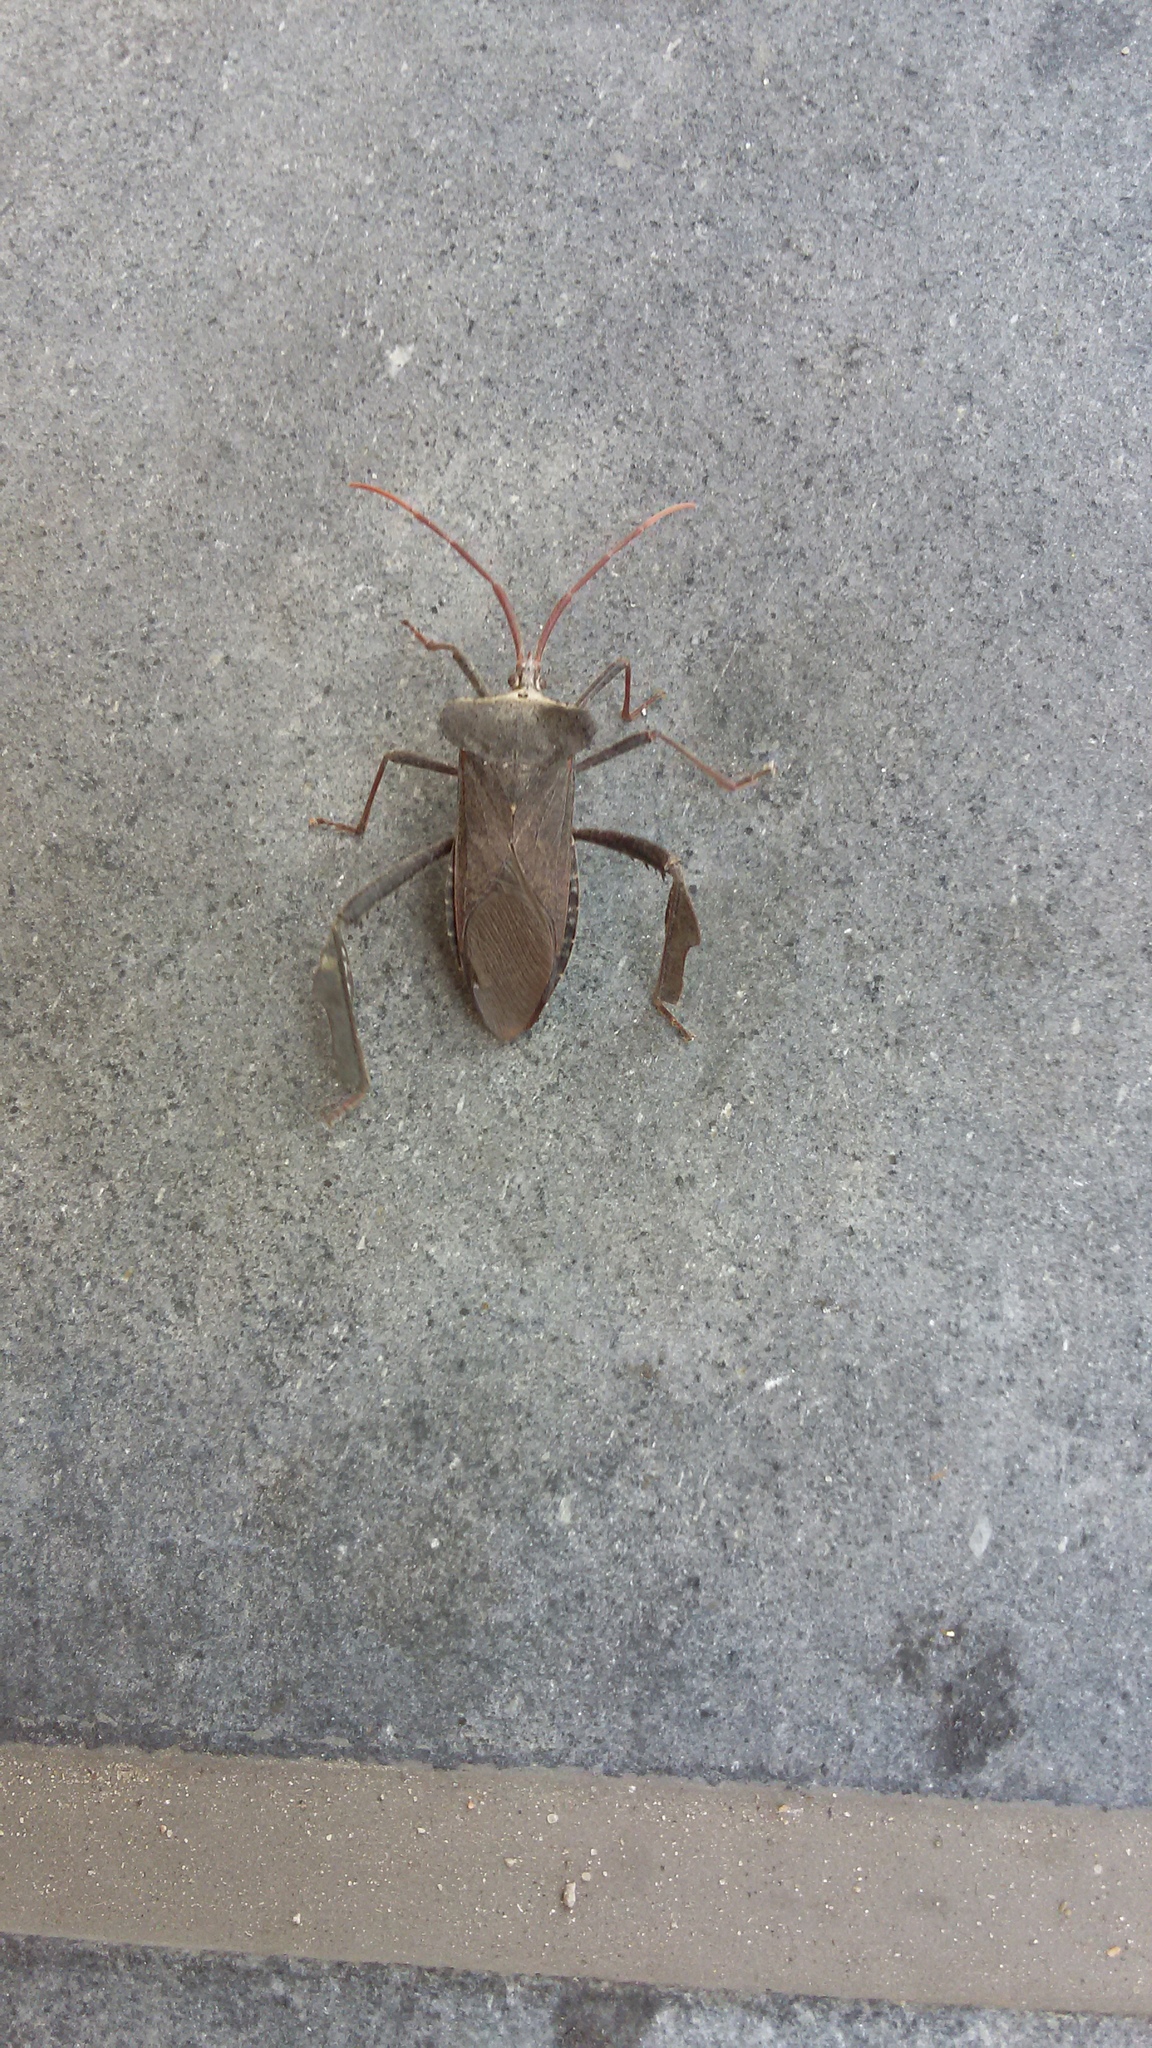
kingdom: Animalia
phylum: Arthropoda
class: Insecta
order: Hemiptera
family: Coreidae
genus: Acanthocephala
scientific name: Acanthocephala declivis
